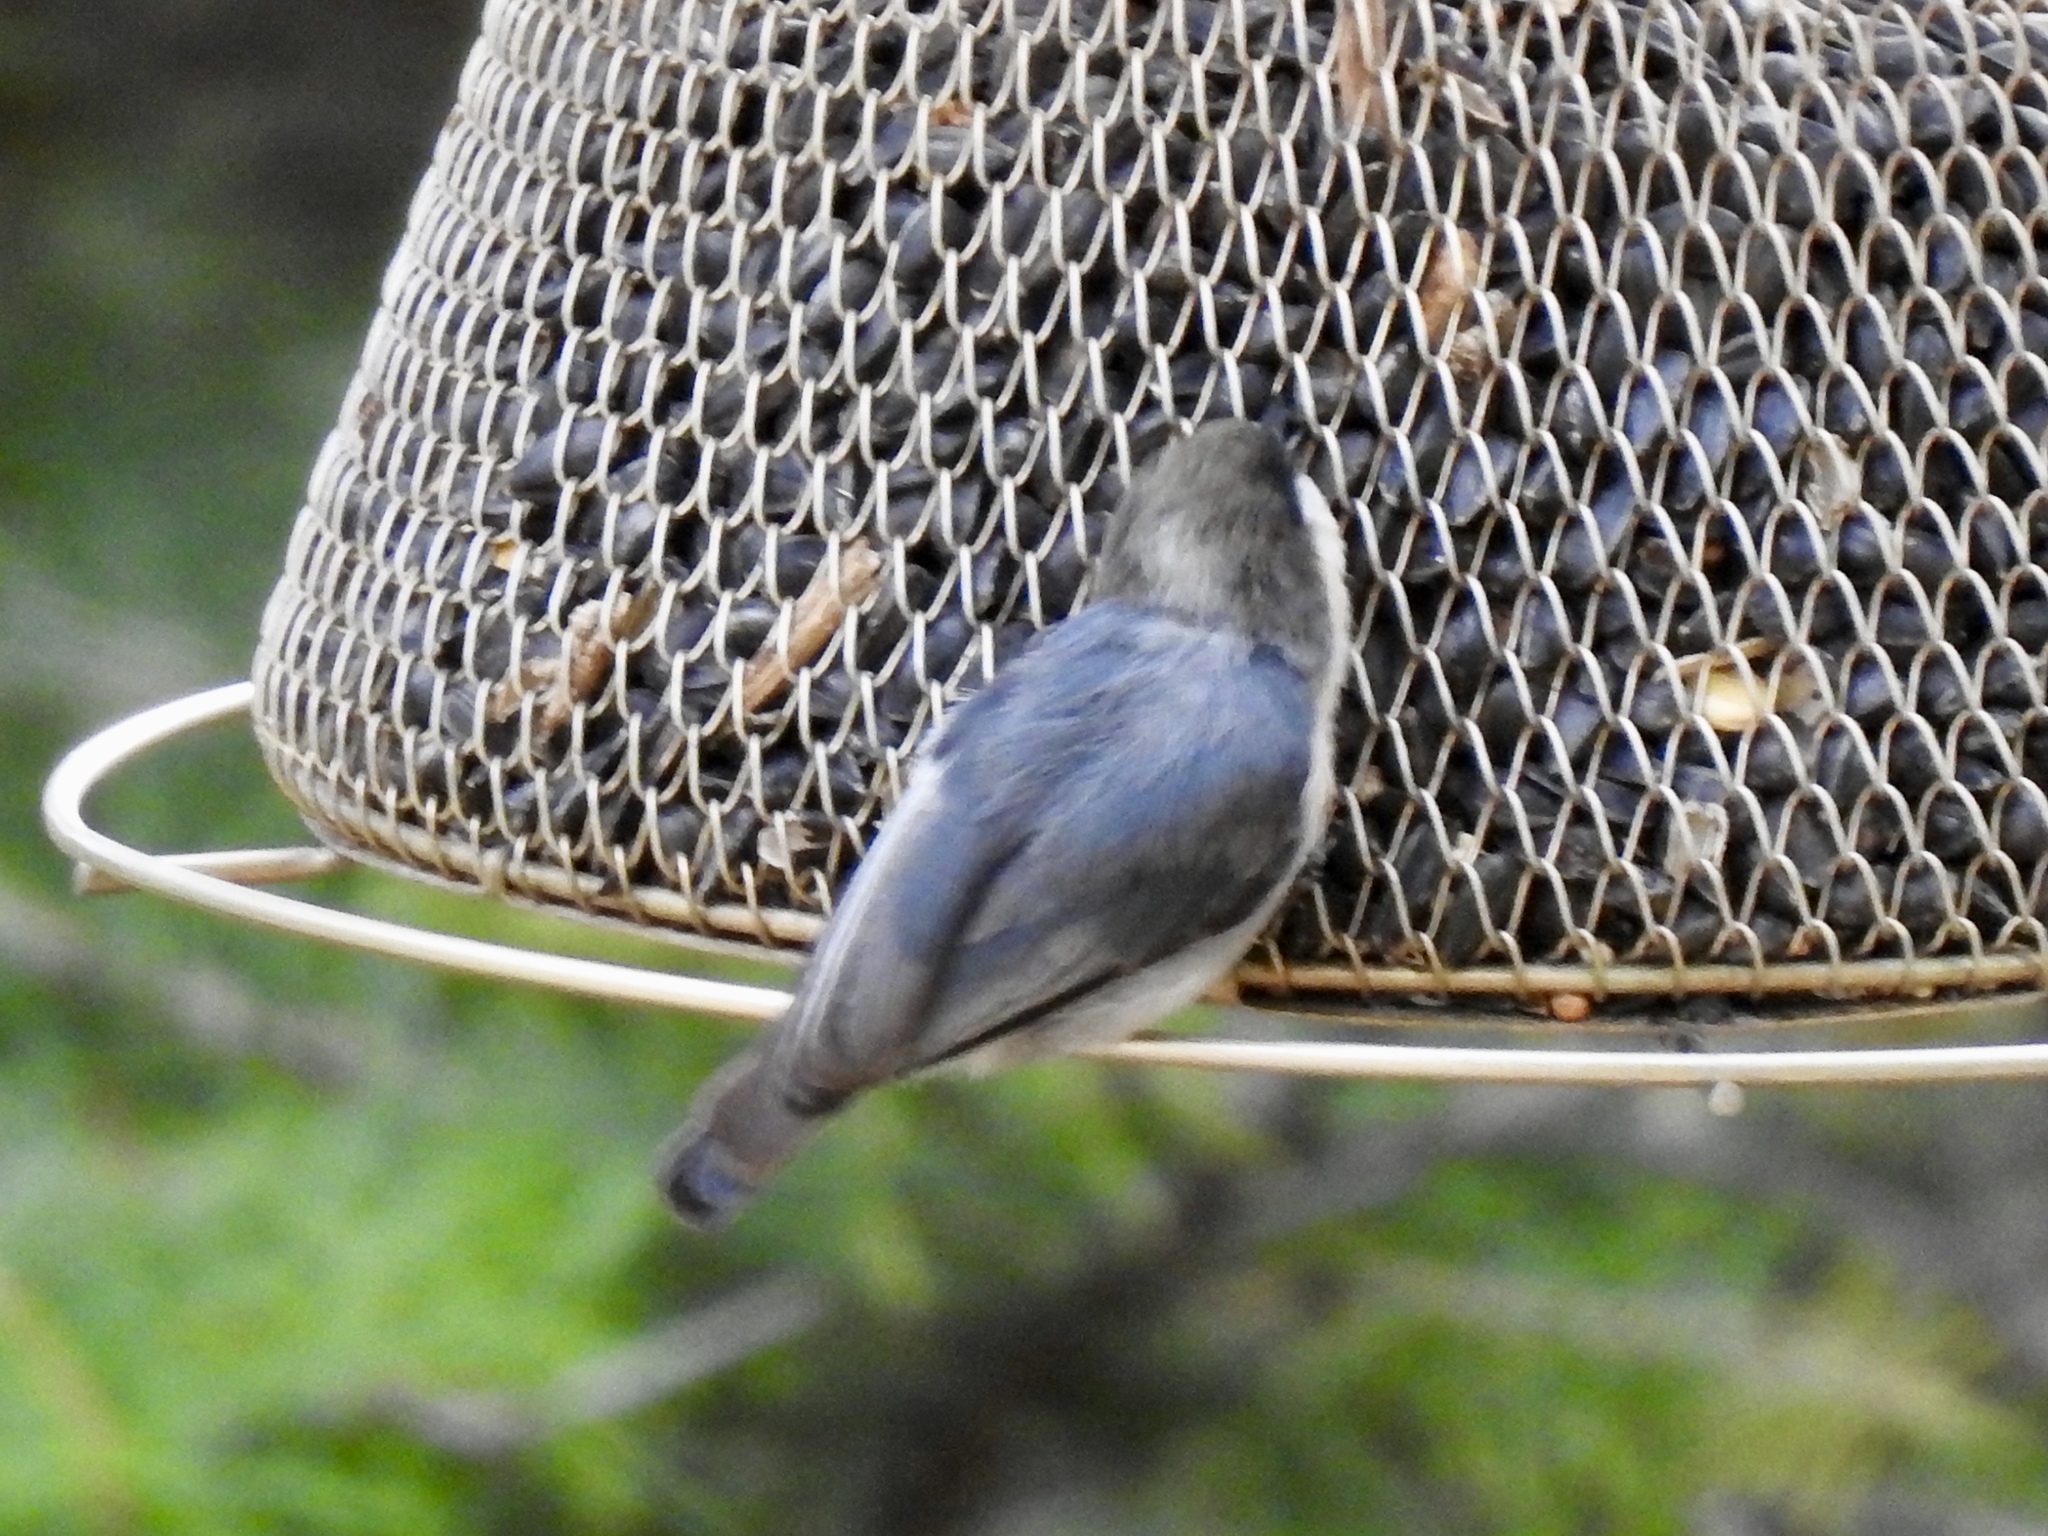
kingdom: Animalia
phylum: Chordata
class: Aves
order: Passeriformes
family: Sittidae
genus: Sitta
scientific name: Sitta pygmaea
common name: Pygmy nuthatch
